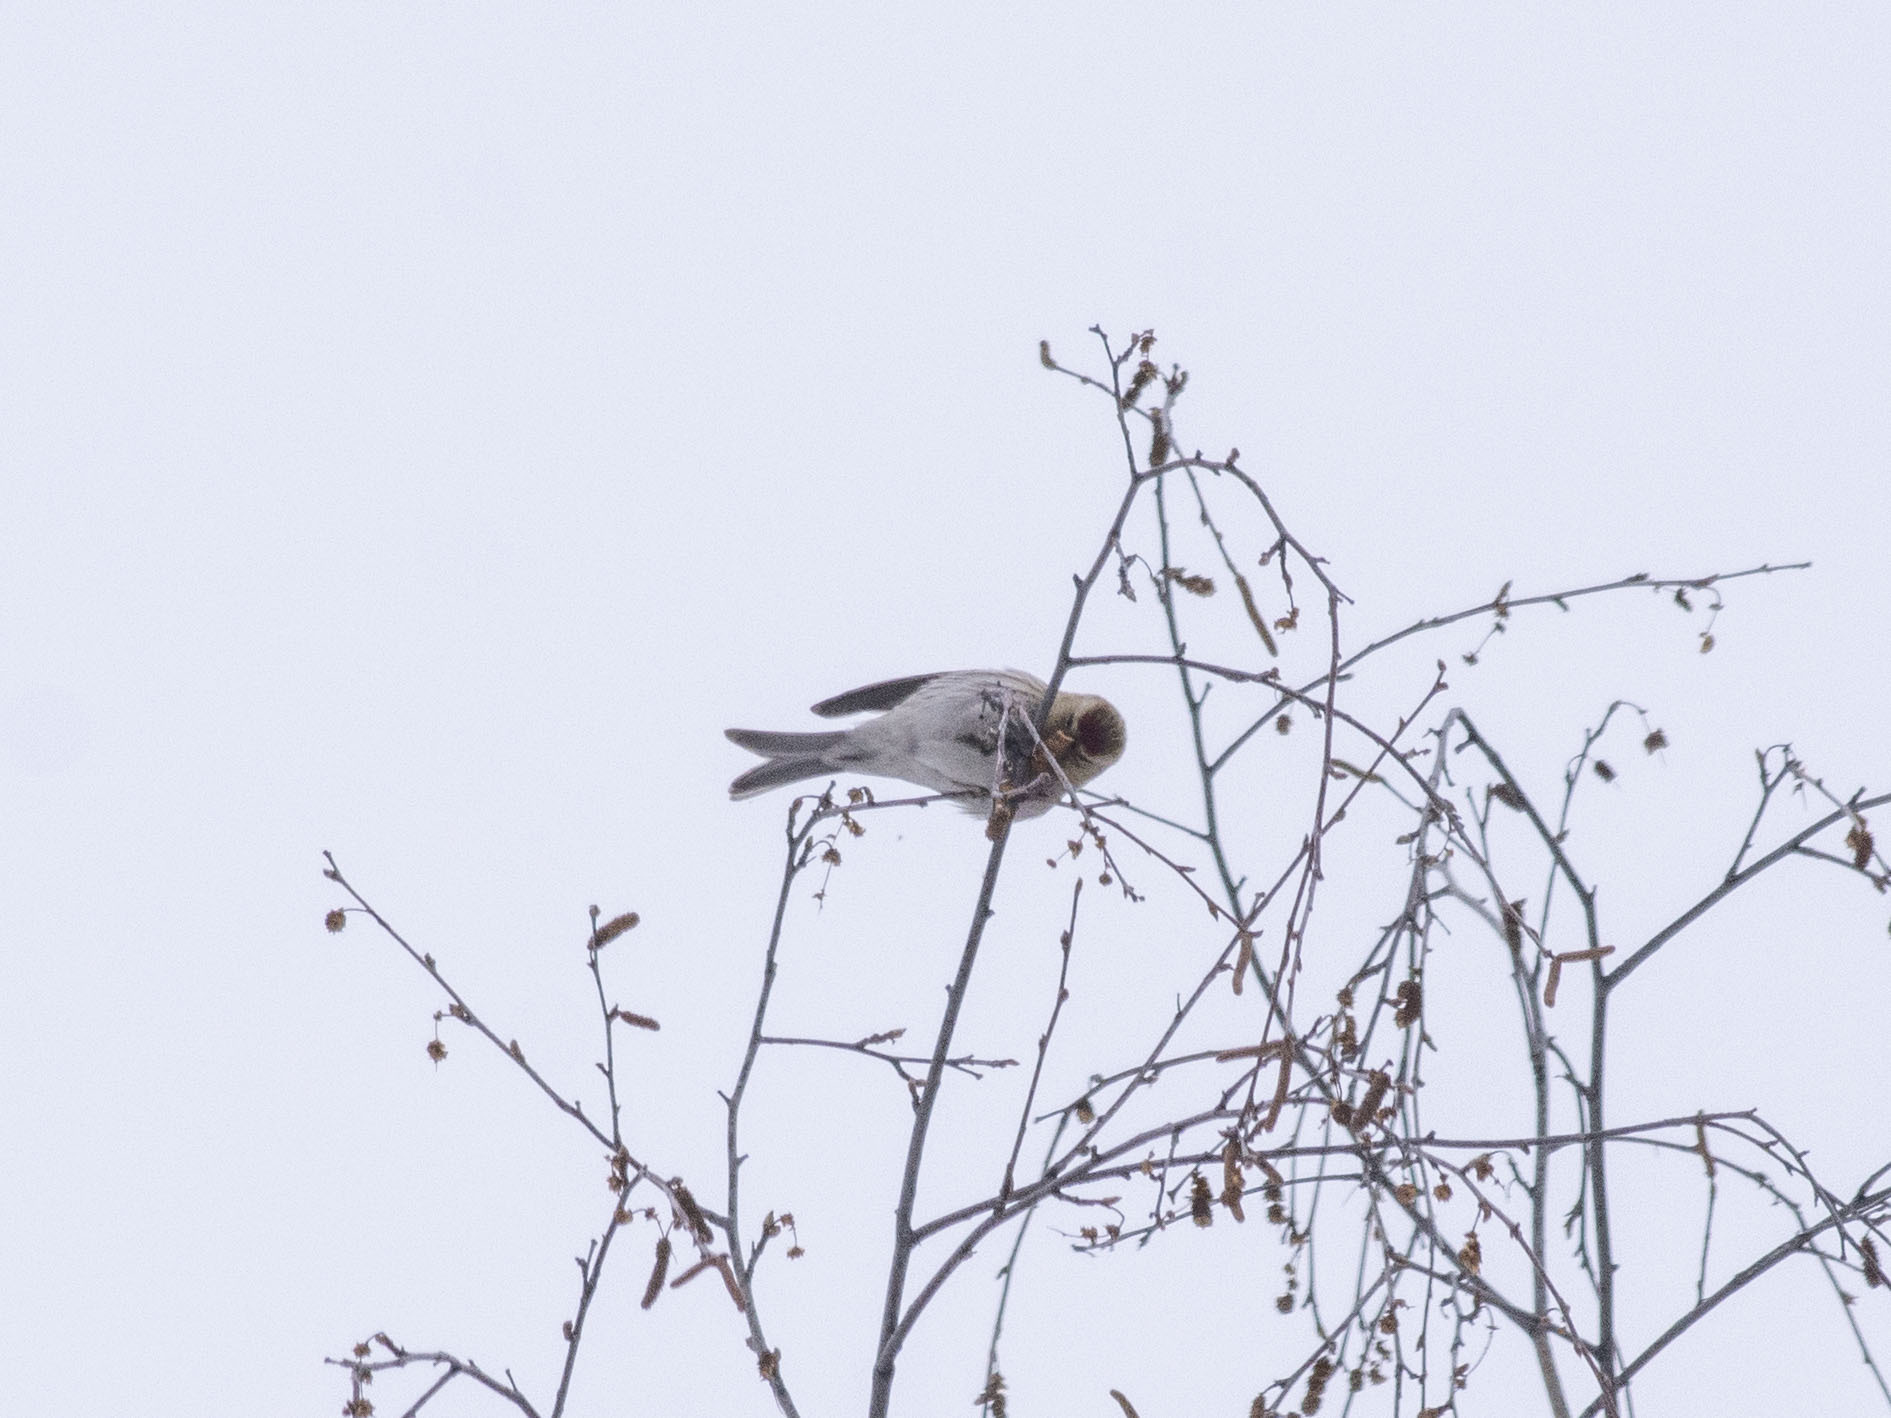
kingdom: Animalia
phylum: Chordata
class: Aves
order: Passeriformes
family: Fringillidae
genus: Acanthis
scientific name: Acanthis flammea
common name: Common redpoll
